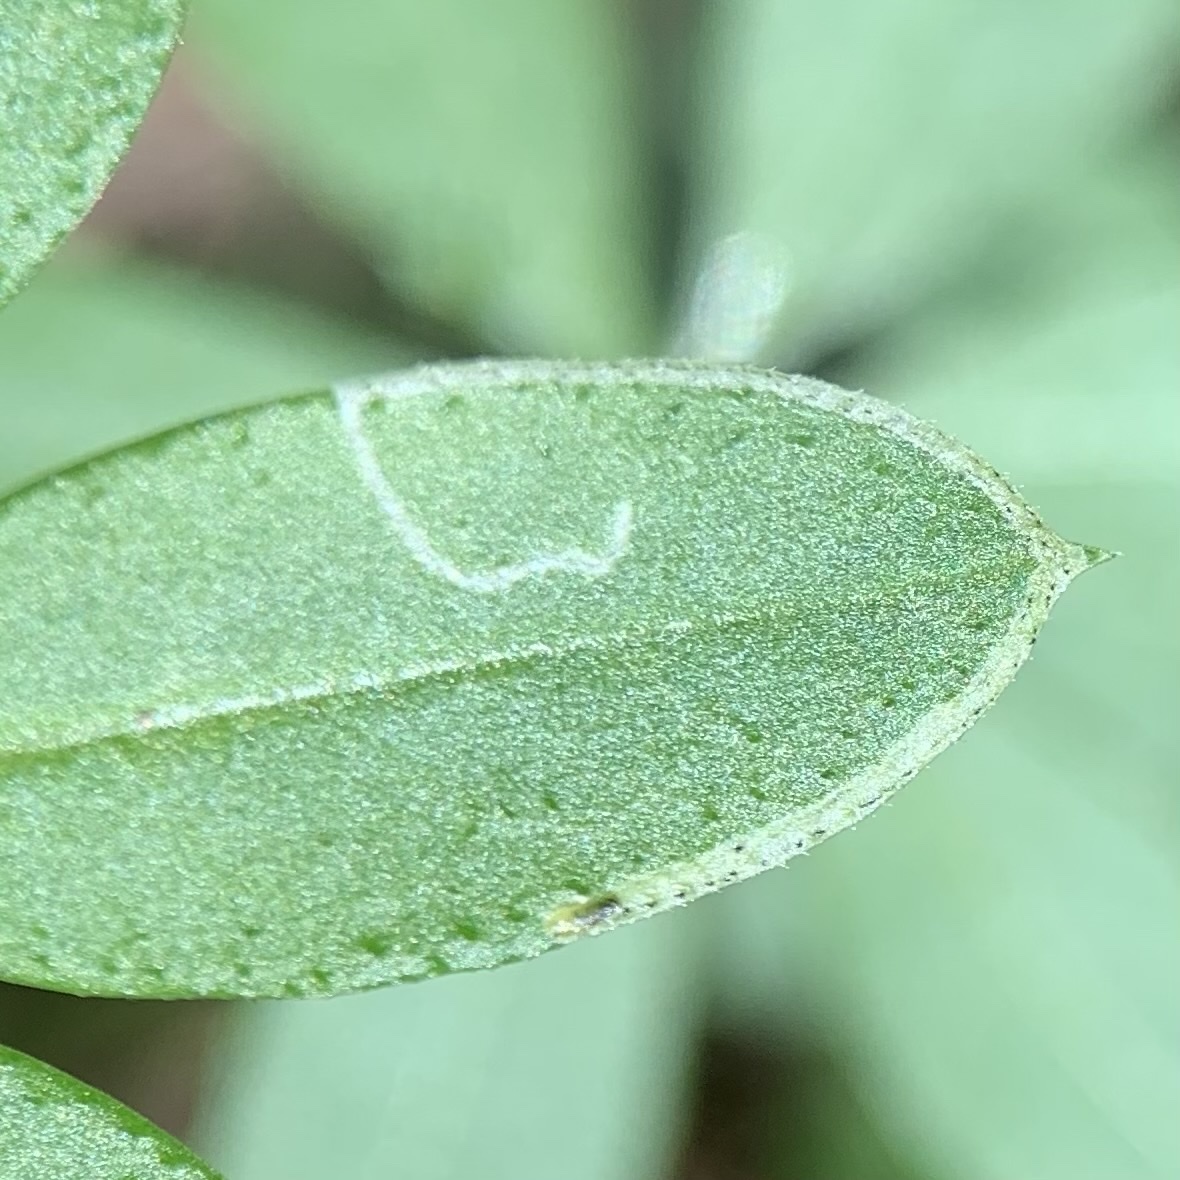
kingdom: Animalia
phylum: Arthropoda
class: Insecta
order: Diptera
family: Agromyzidae
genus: Liriomyza
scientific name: Liriomyza galiivora
